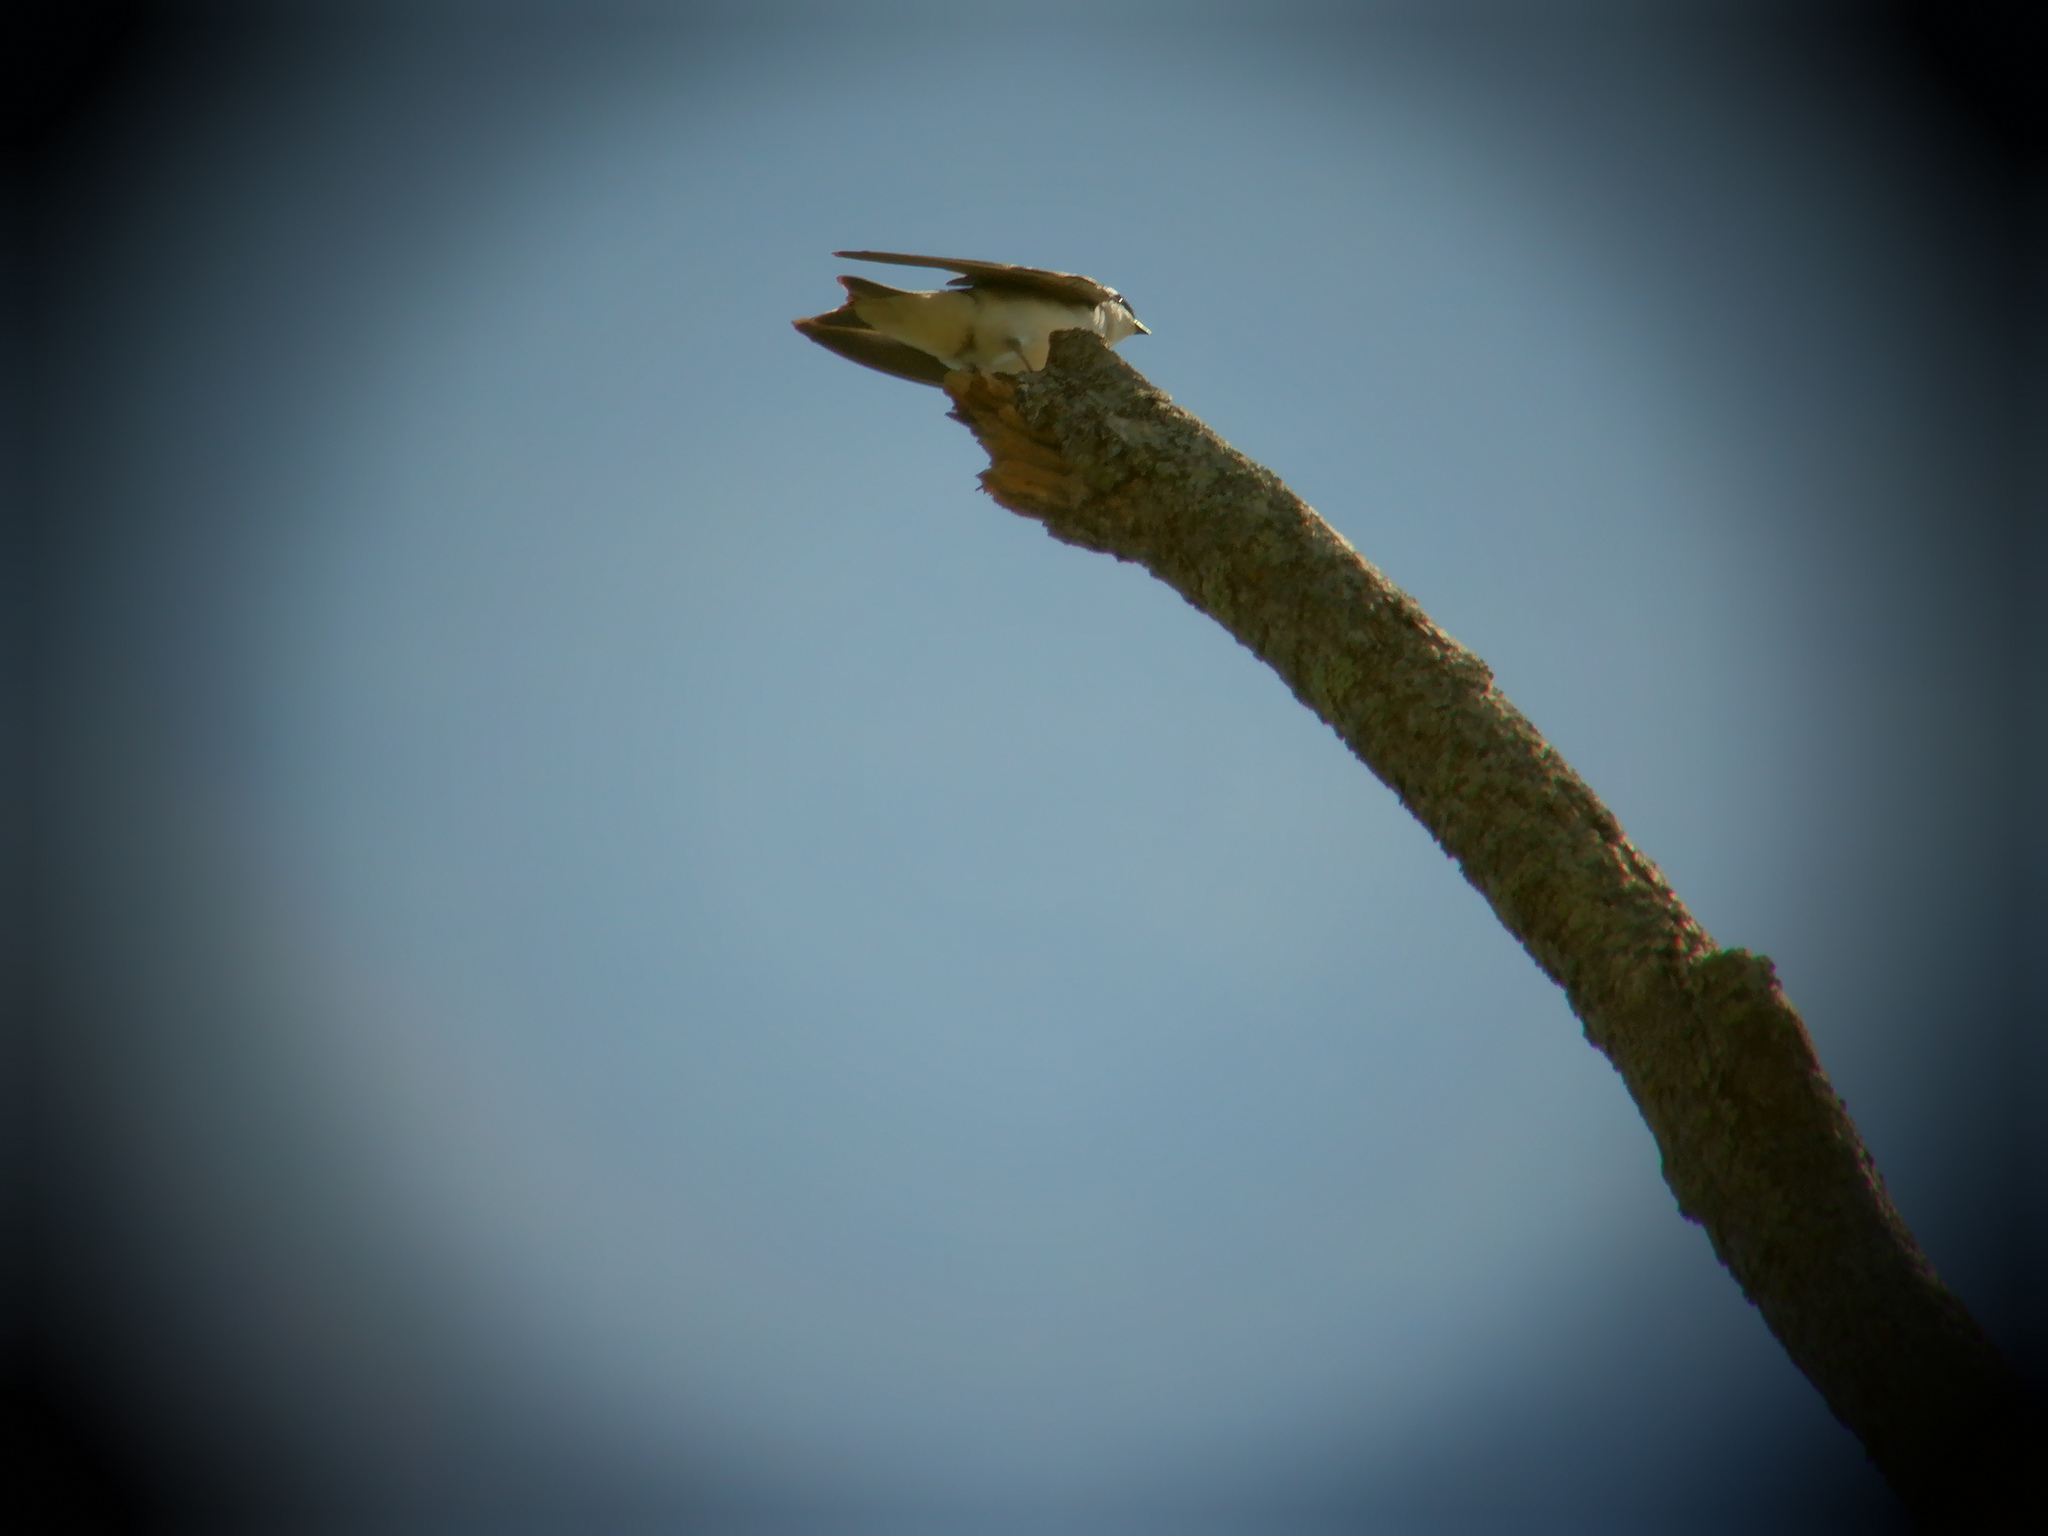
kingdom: Animalia
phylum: Chordata
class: Aves
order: Passeriformes
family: Hirundinidae
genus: Tachycineta
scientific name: Tachycineta bicolor
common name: Tree swallow
